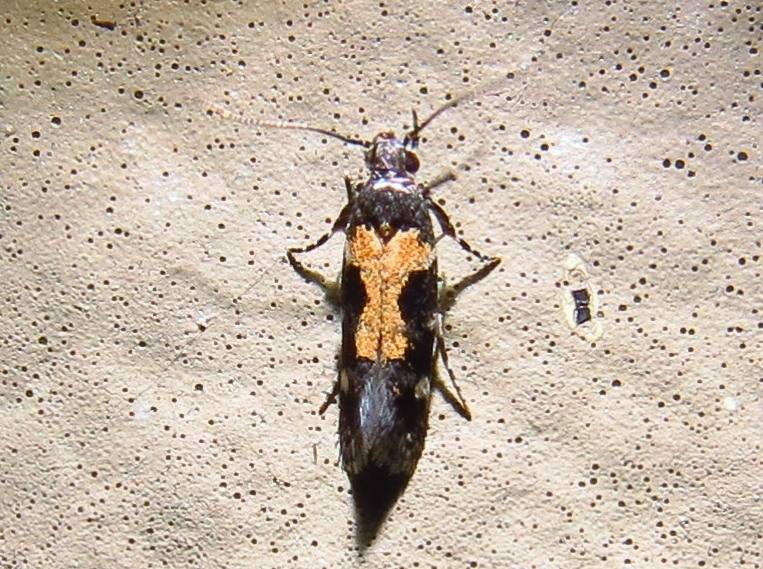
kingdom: Animalia
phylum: Arthropoda
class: Insecta
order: Lepidoptera
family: Gelechiidae
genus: Stegasta
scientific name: Stegasta bosqueella
